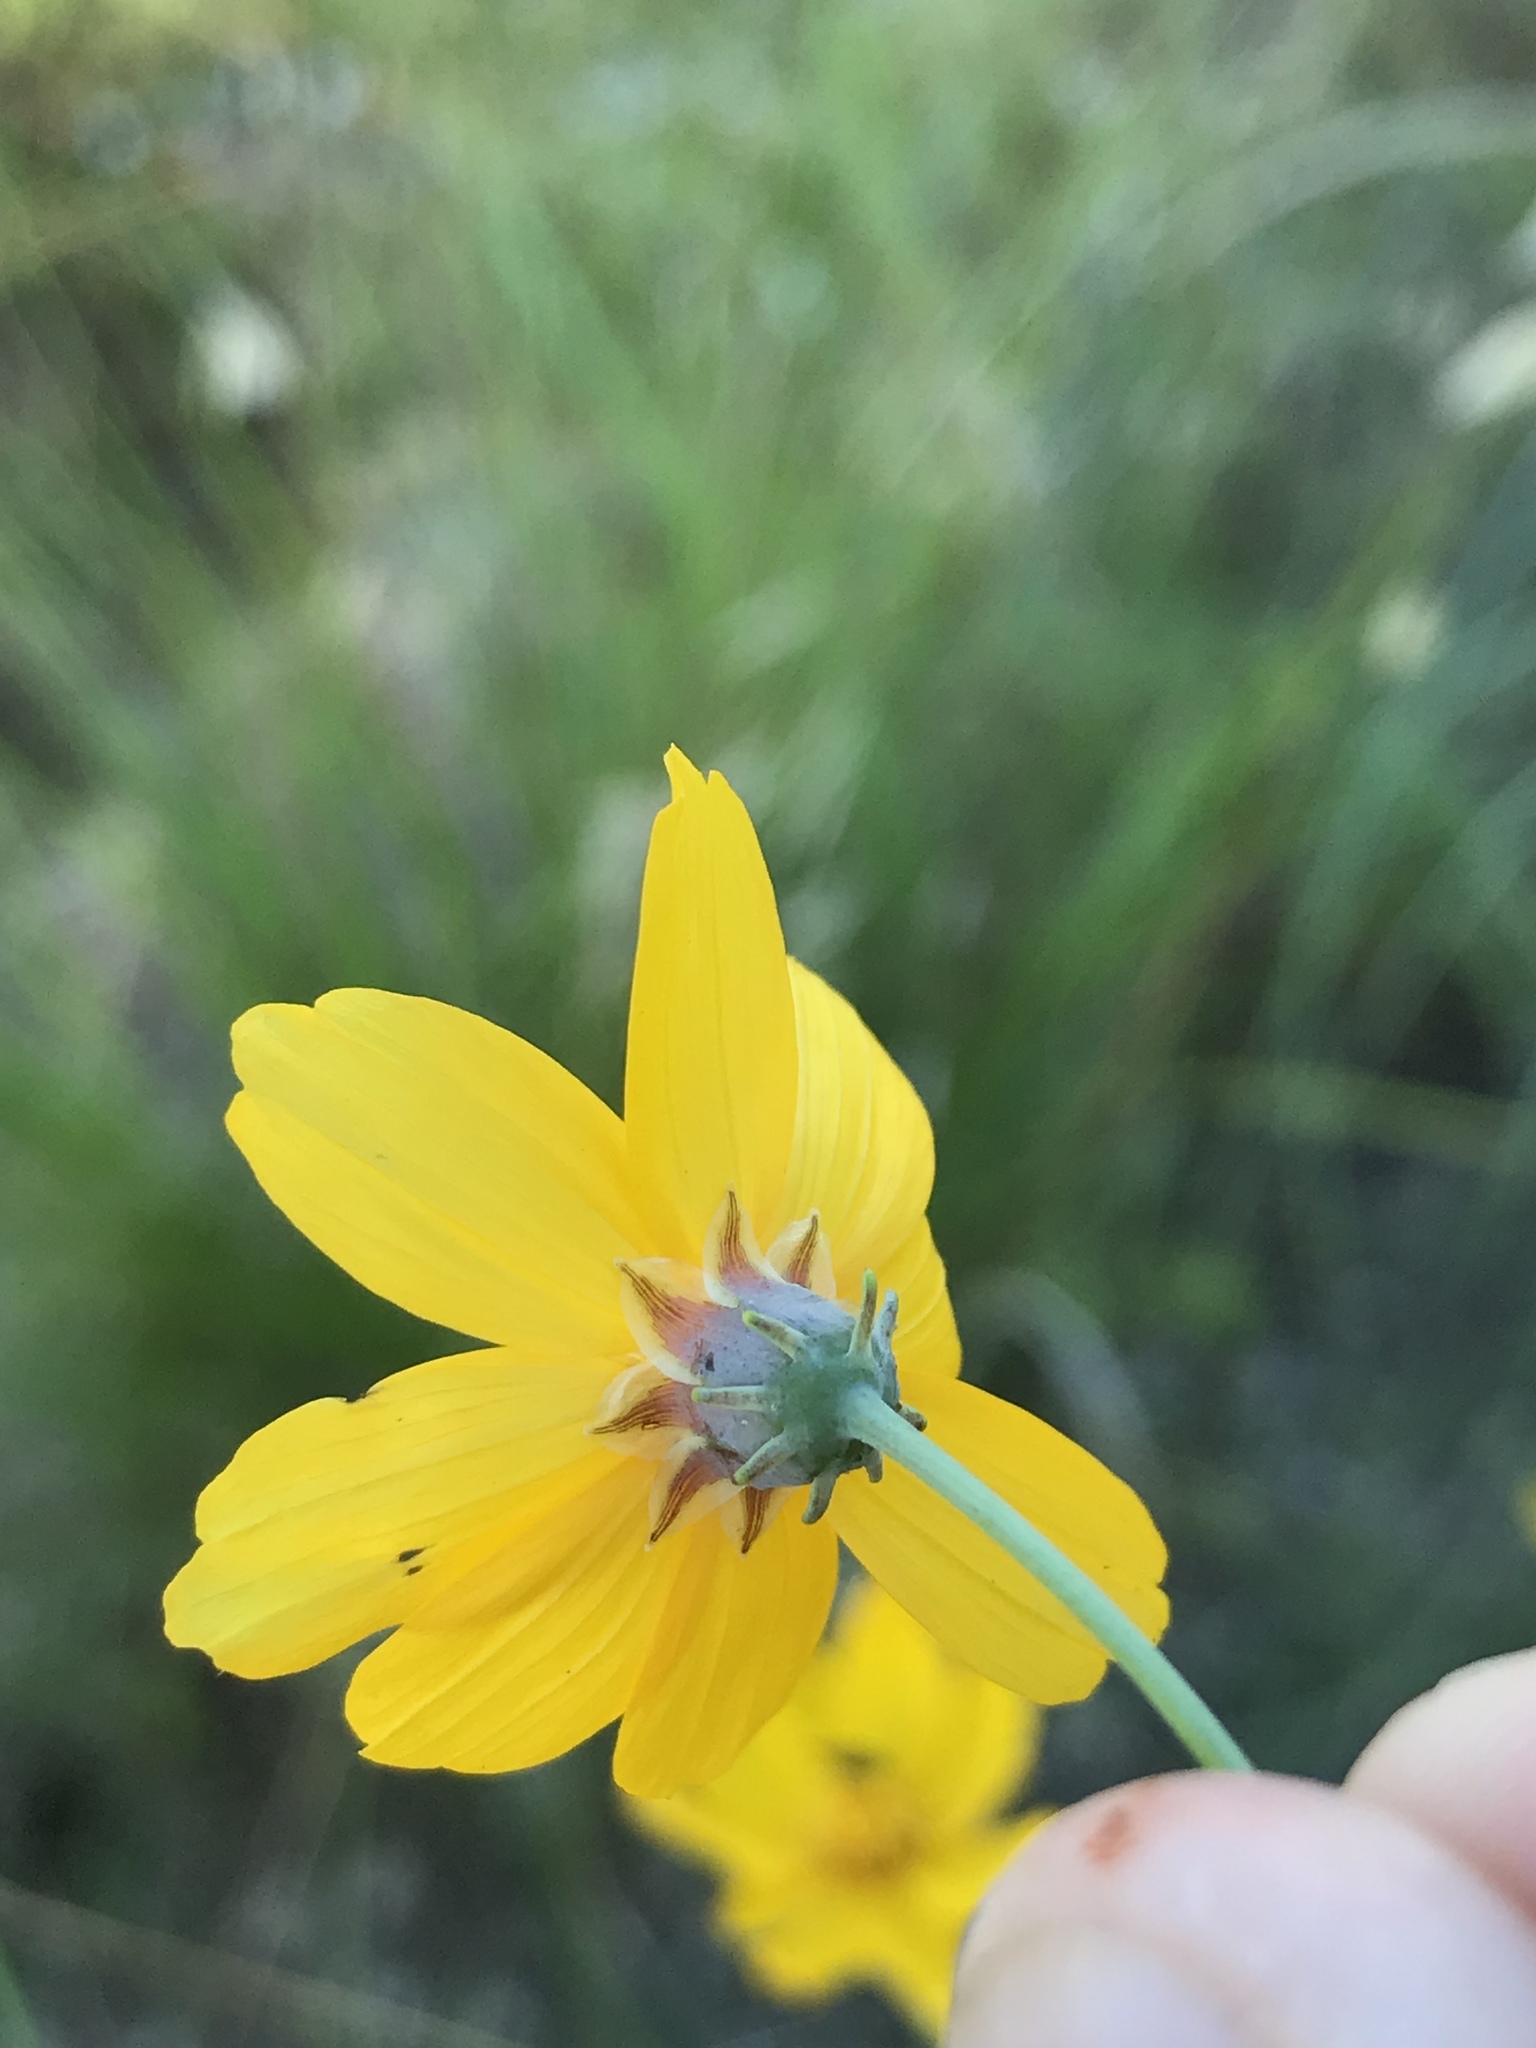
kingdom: Plantae
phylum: Tracheophyta
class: Magnoliopsida
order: Asterales
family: Asteraceae
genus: Thelesperma
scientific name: Thelesperma simplicifolium
